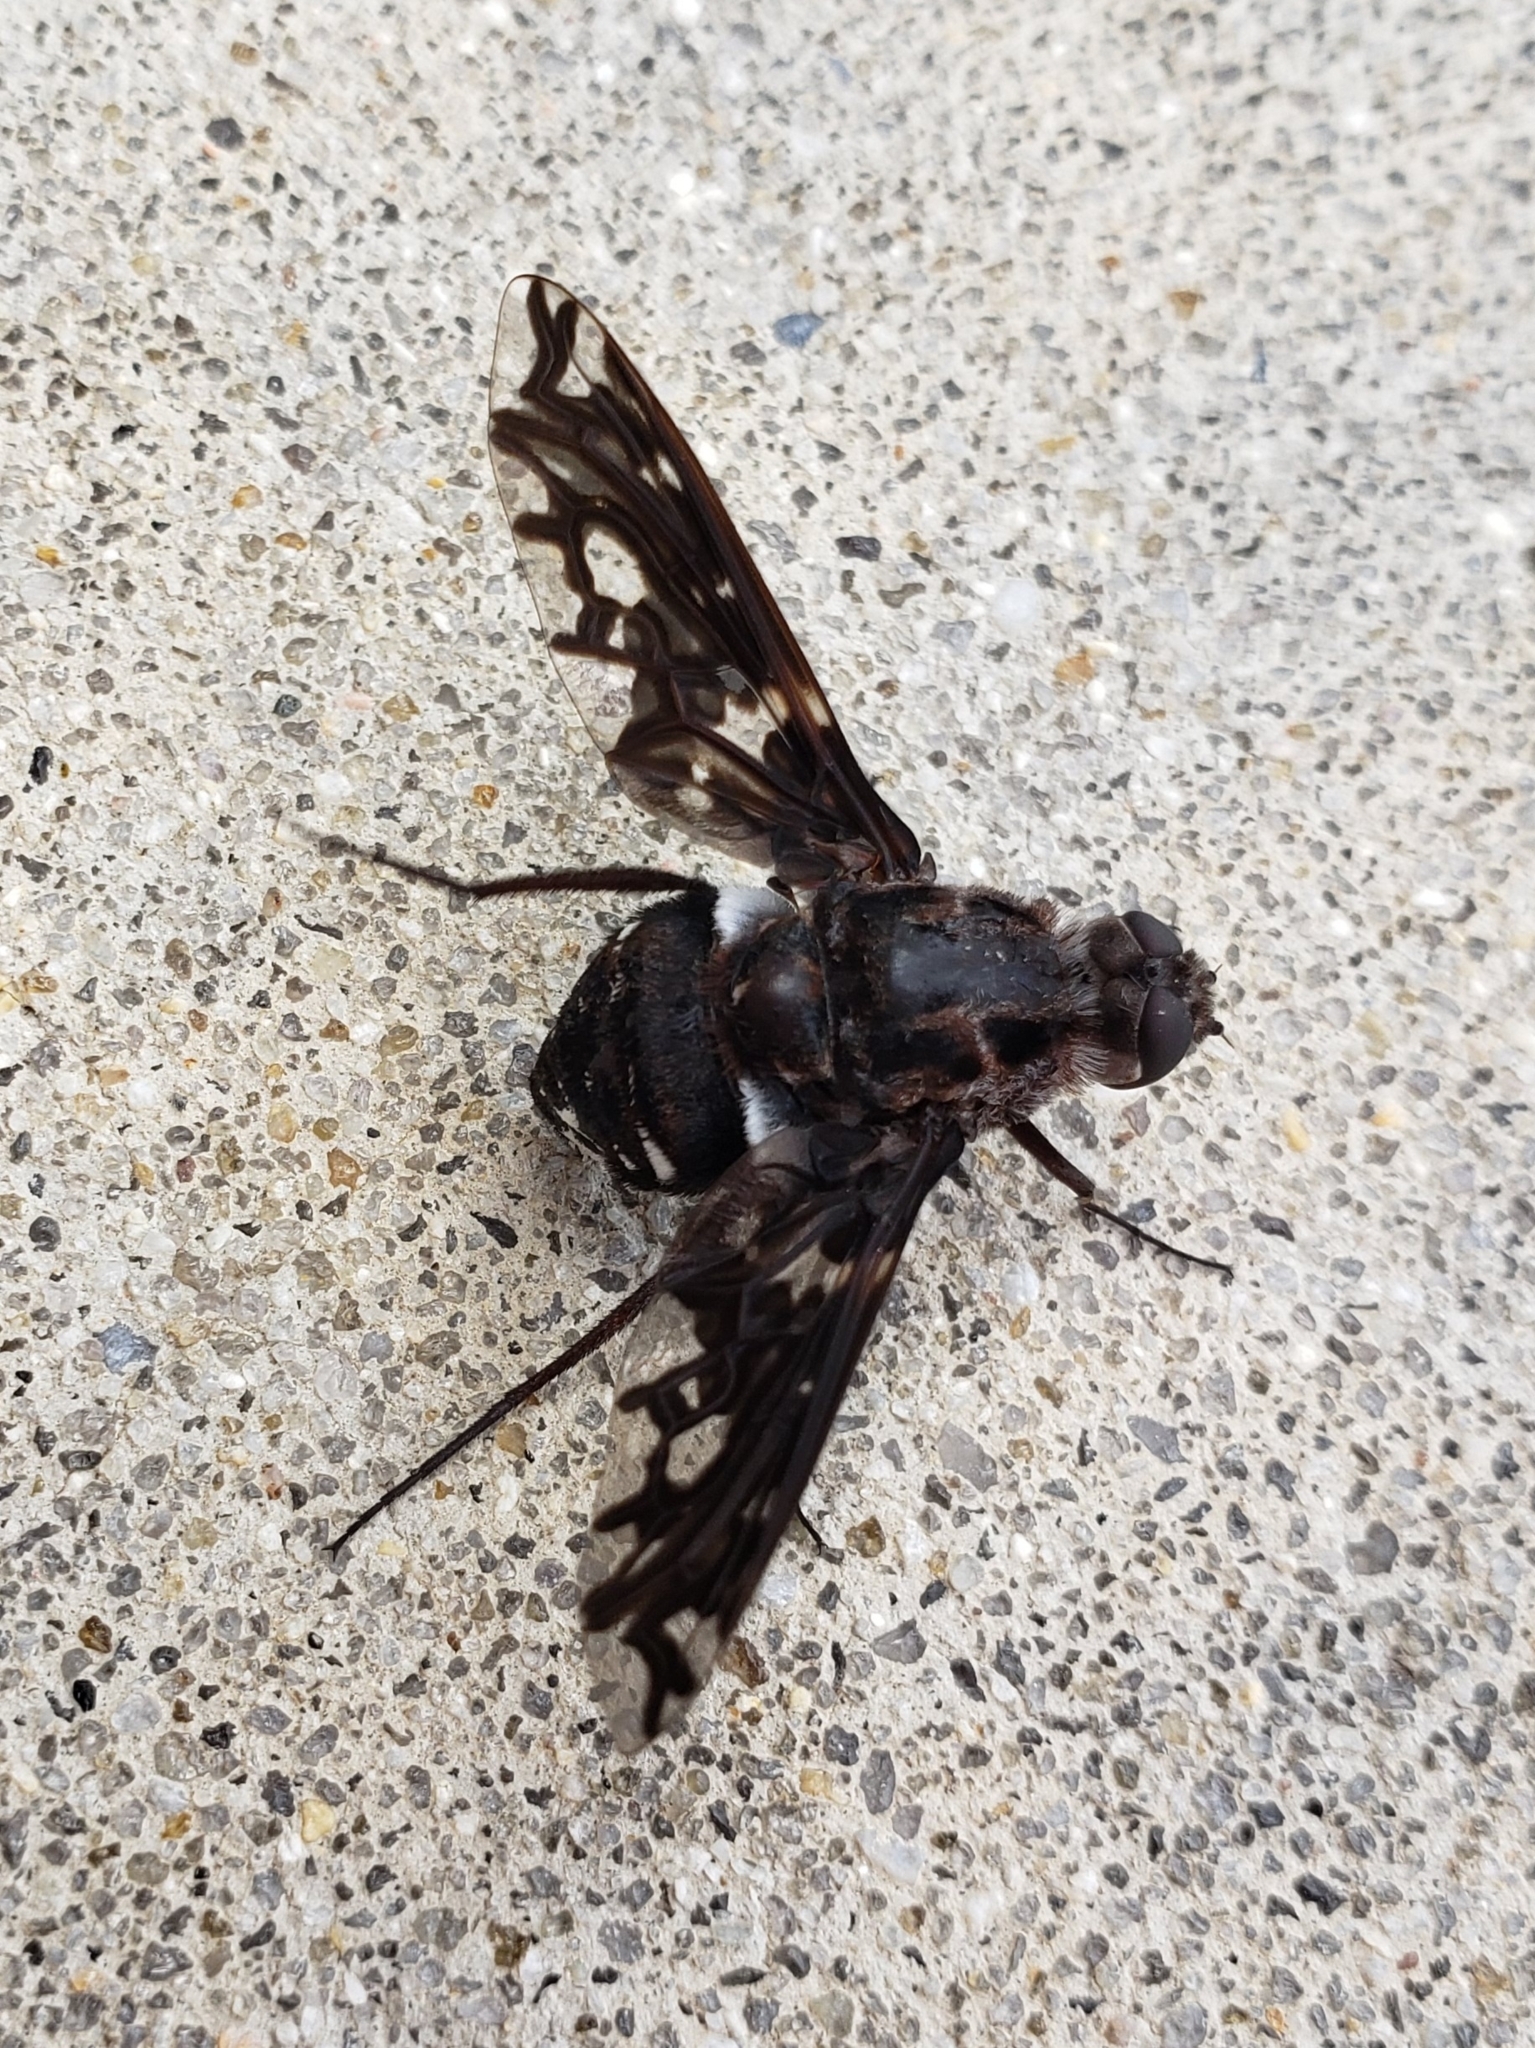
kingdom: Animalia
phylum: Arthropoda
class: Insecta
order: Diptera
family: Bombyliidae
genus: Xenox
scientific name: Xenox tigrinus
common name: Tiger bee fly
